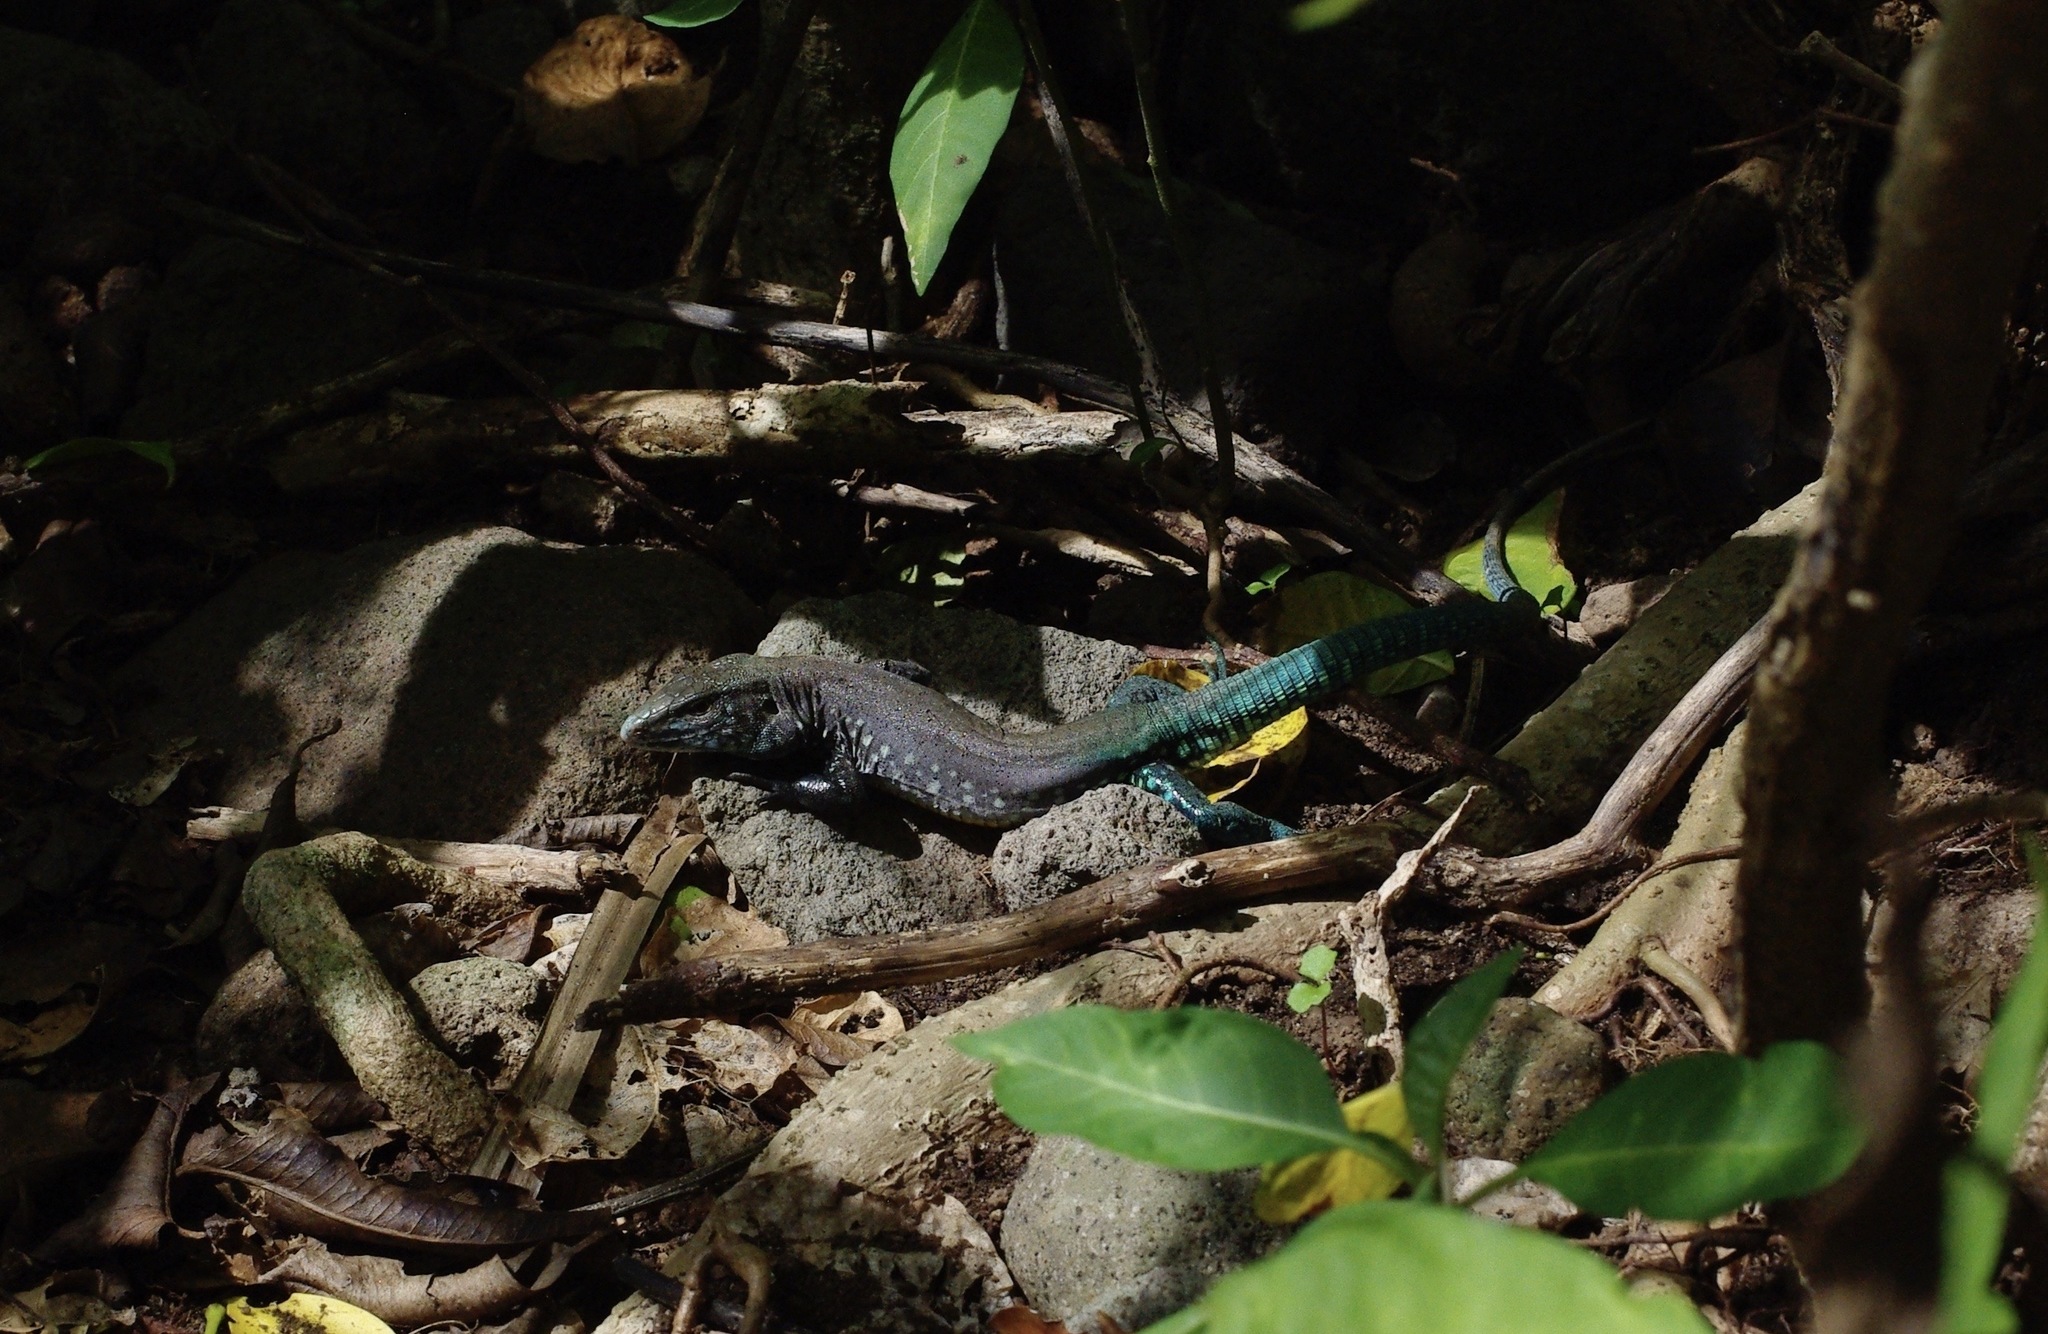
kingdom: Animalia
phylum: Chordata
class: Squamata
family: Teiidae
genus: Cnemidophorus
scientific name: Cnemidophorus vanzoi
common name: Saint lucian whiptail
